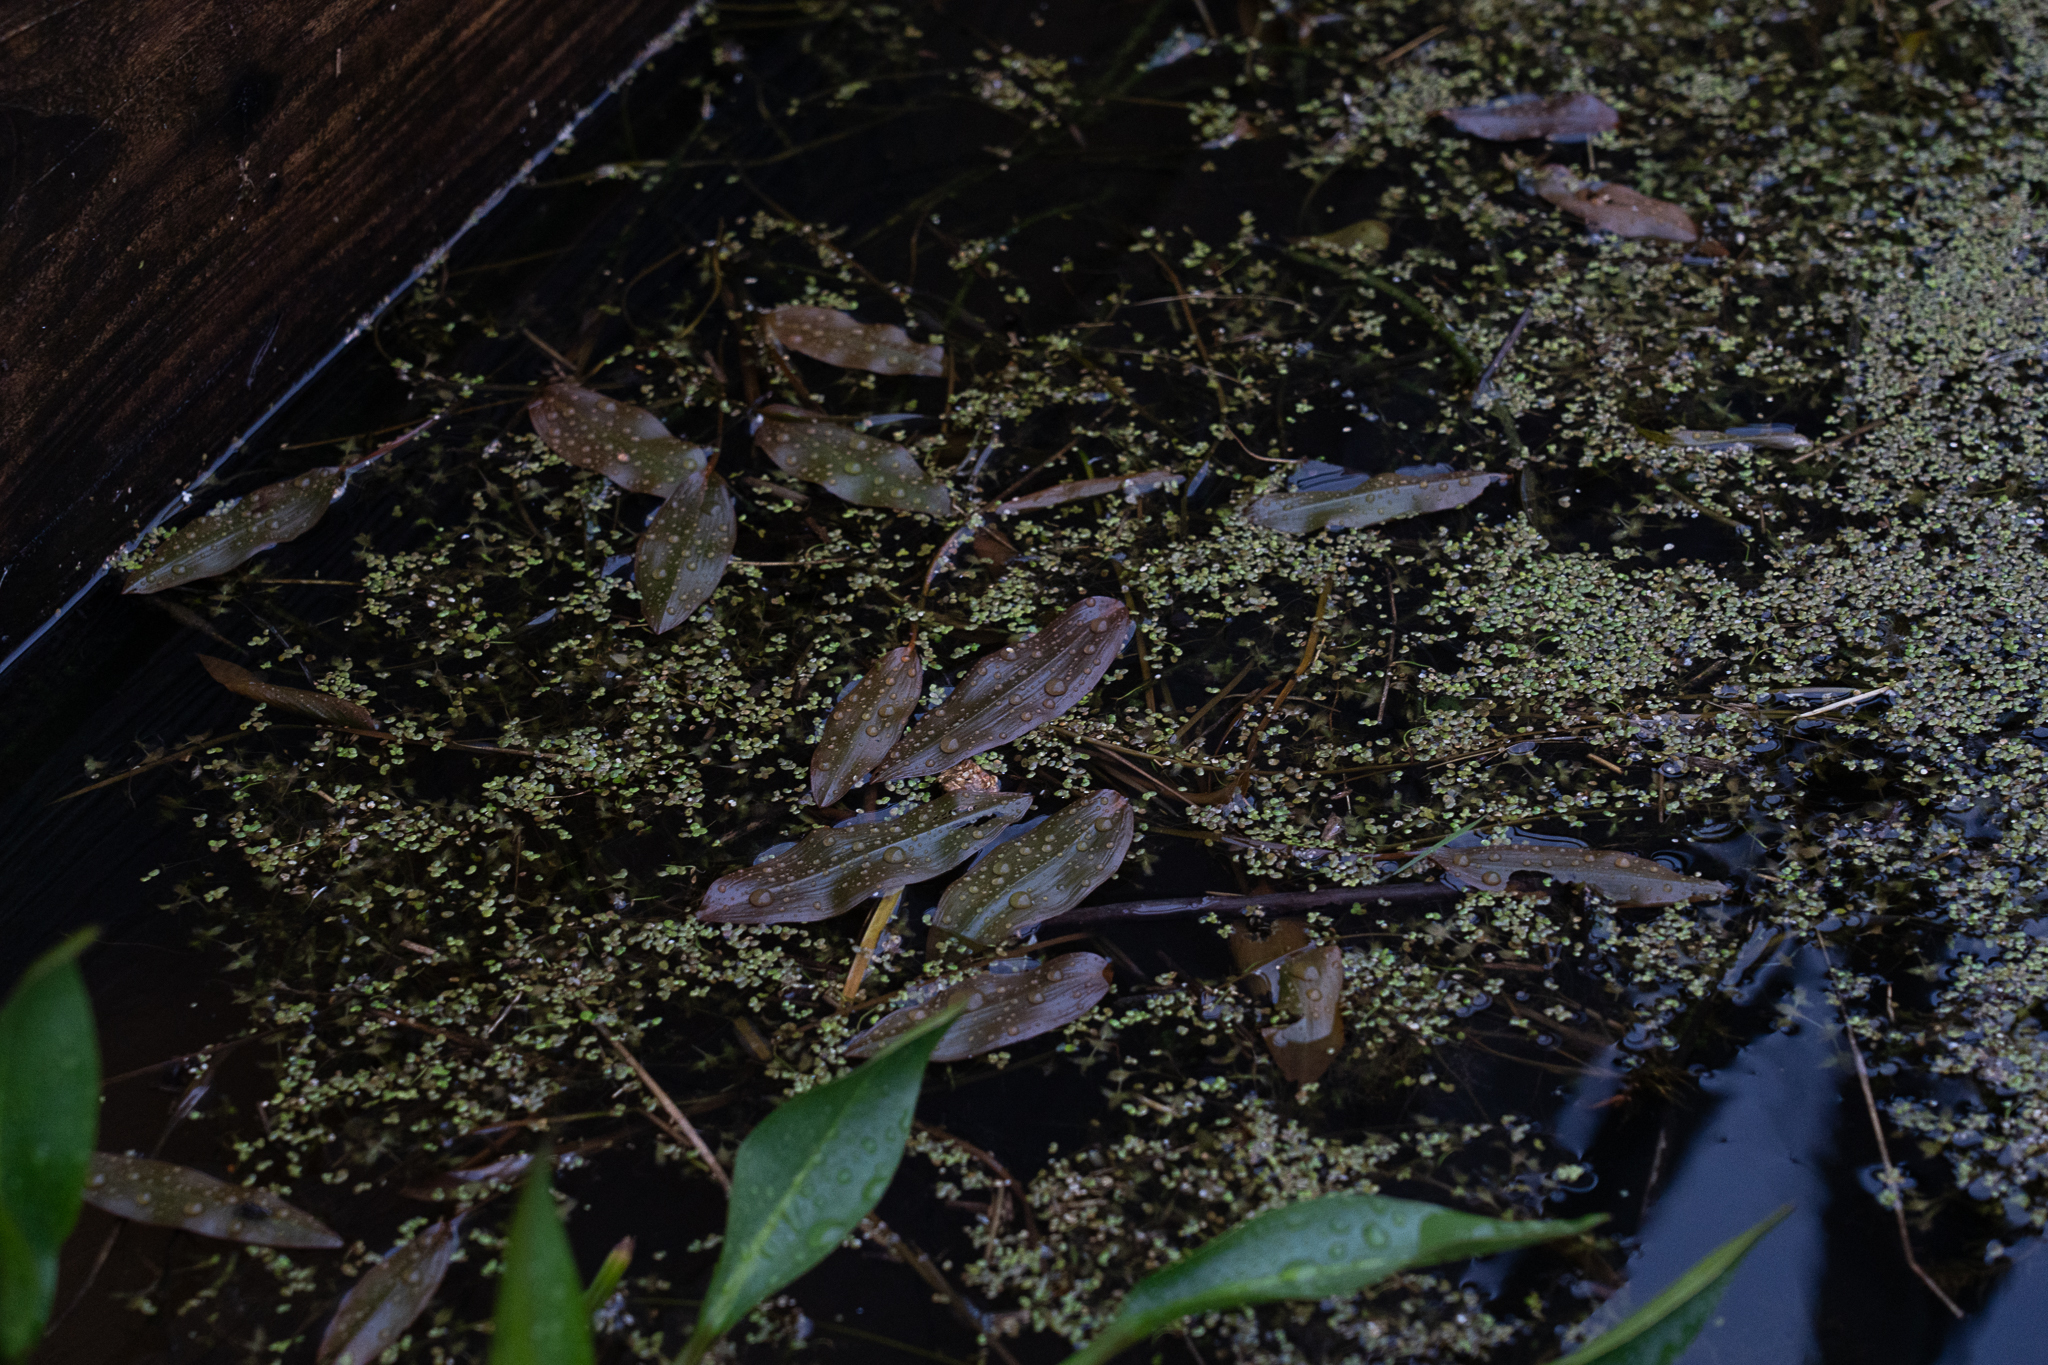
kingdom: Plantae
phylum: Tracheophyta
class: Liliopsida
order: Alismatales
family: Potamogetonaceae
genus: Potamogeton
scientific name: Potamogeton natans
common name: Broad-leaved pondweed
